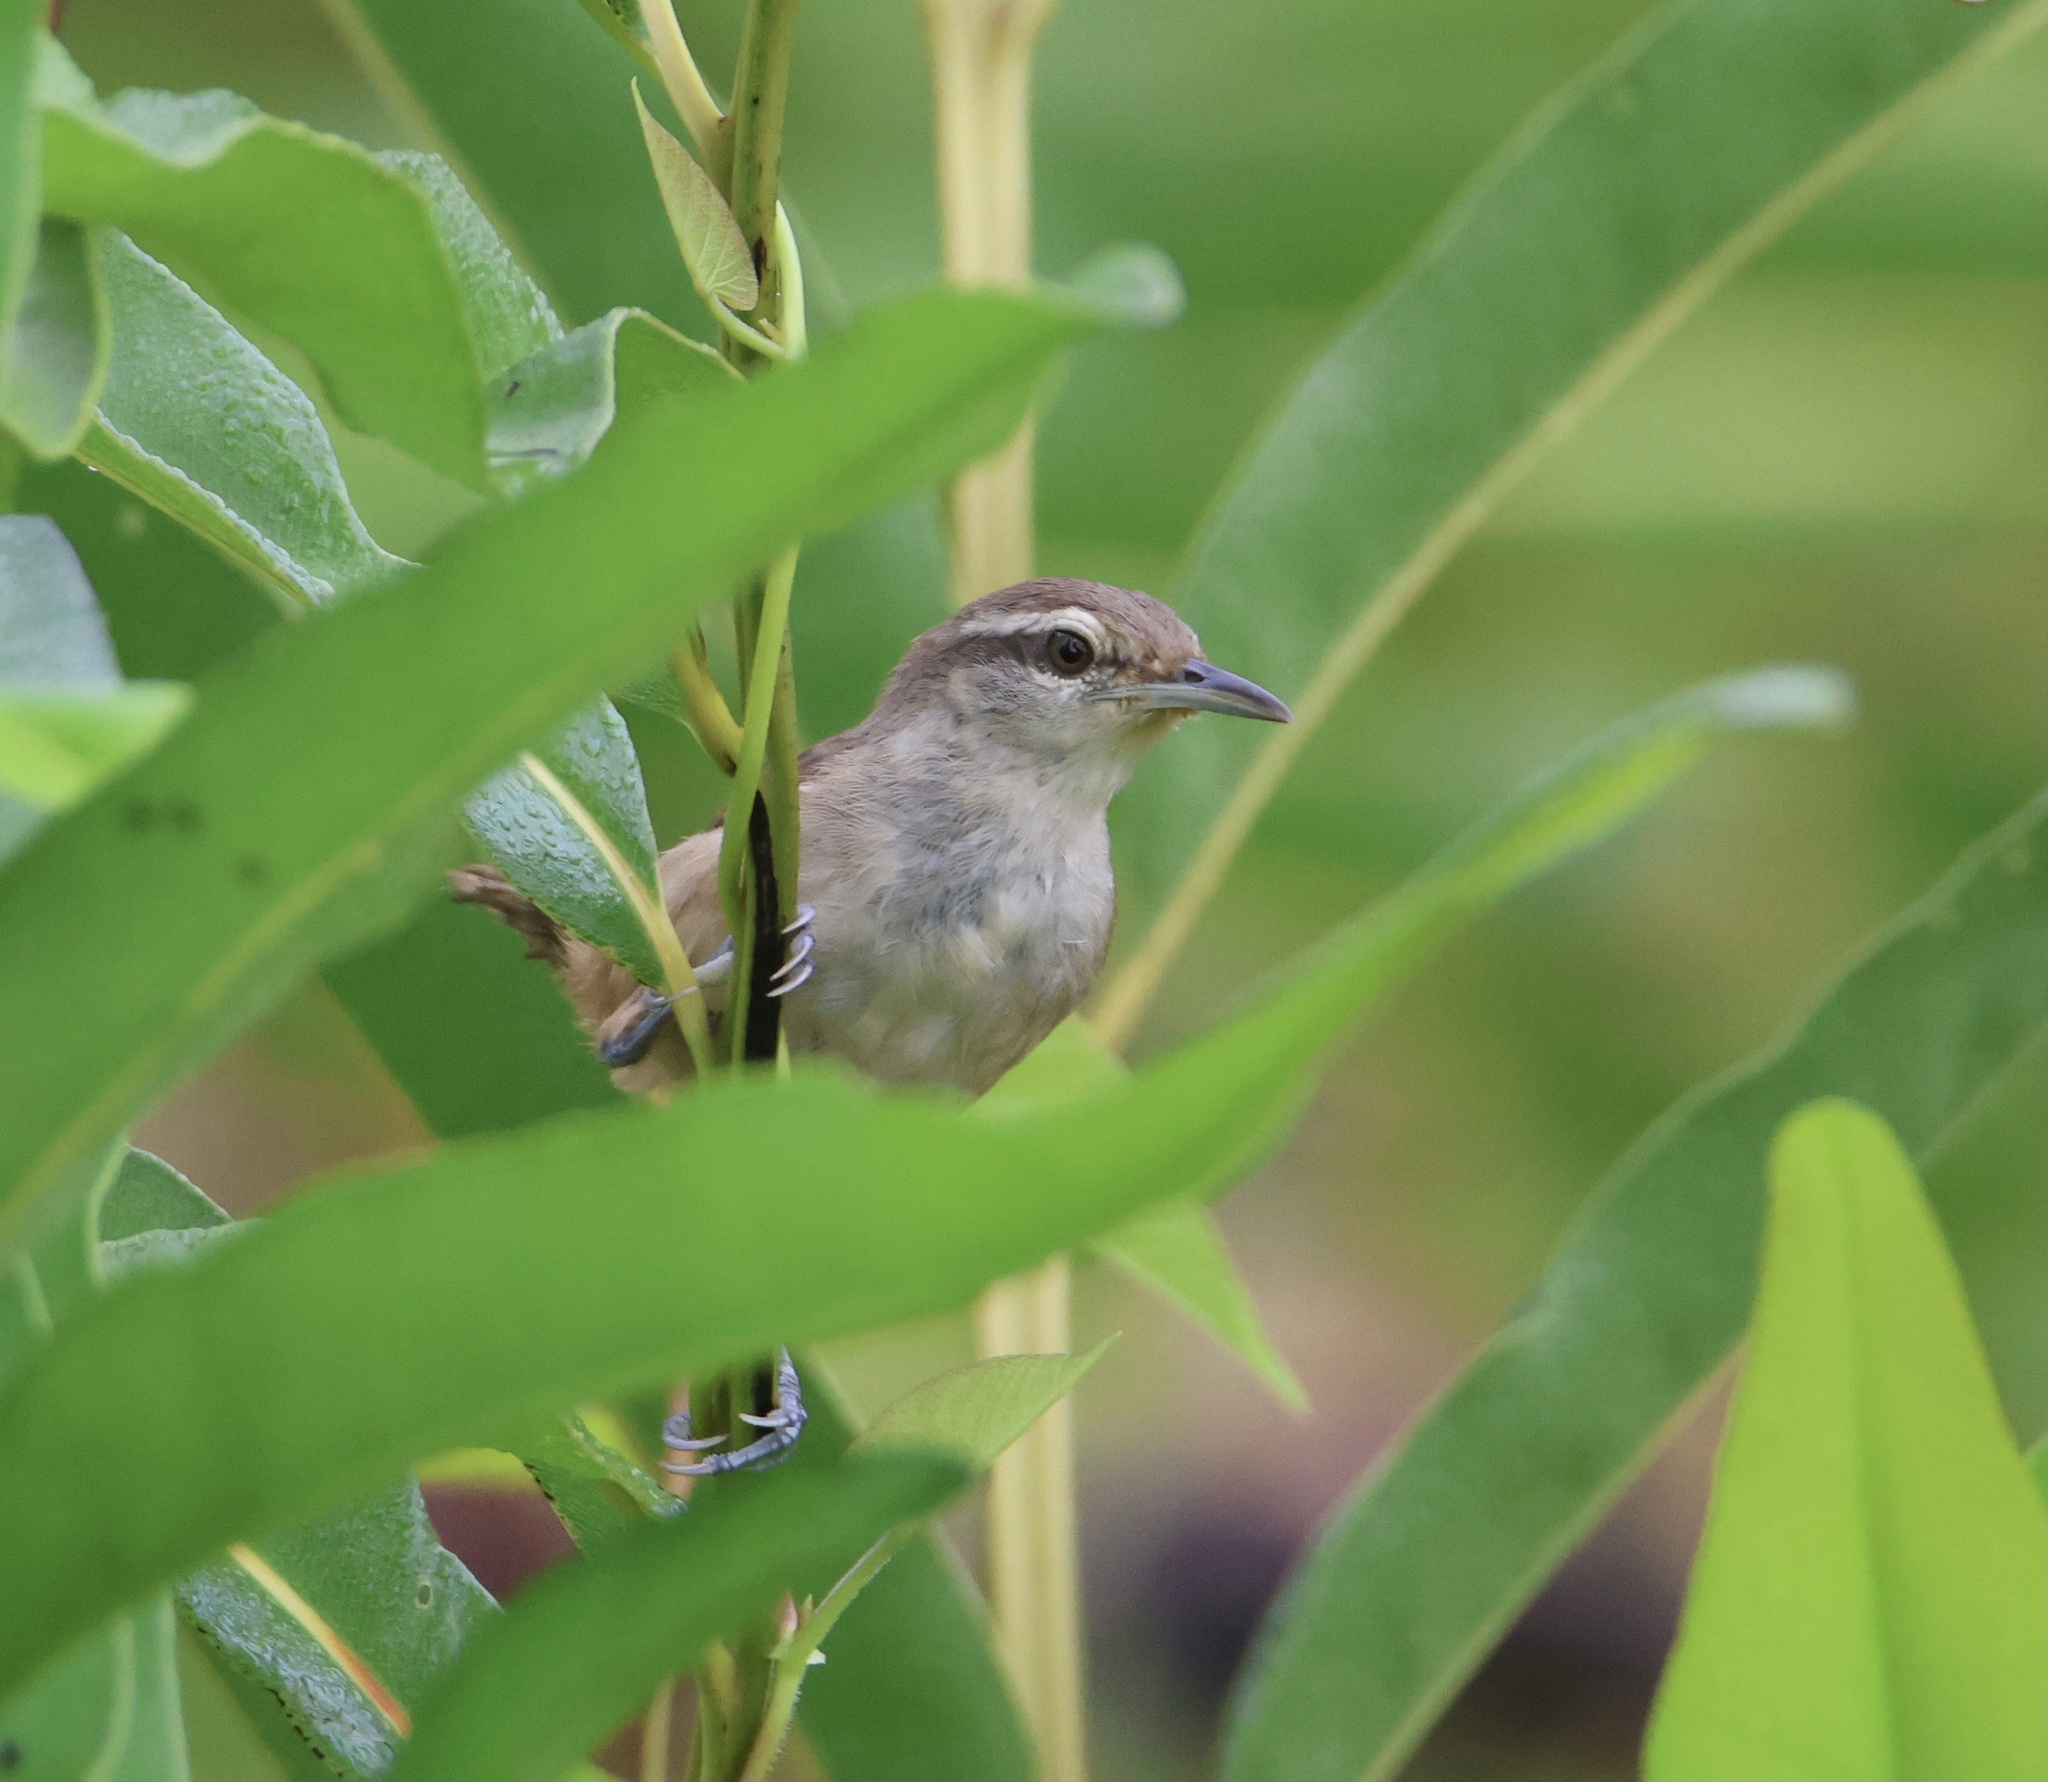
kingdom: Animalia
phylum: Chordata
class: Aves
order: Passeriformes
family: Troglodytidae
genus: Cantorchilus
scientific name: Cantorchilus modestus
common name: Cabanis's wren
